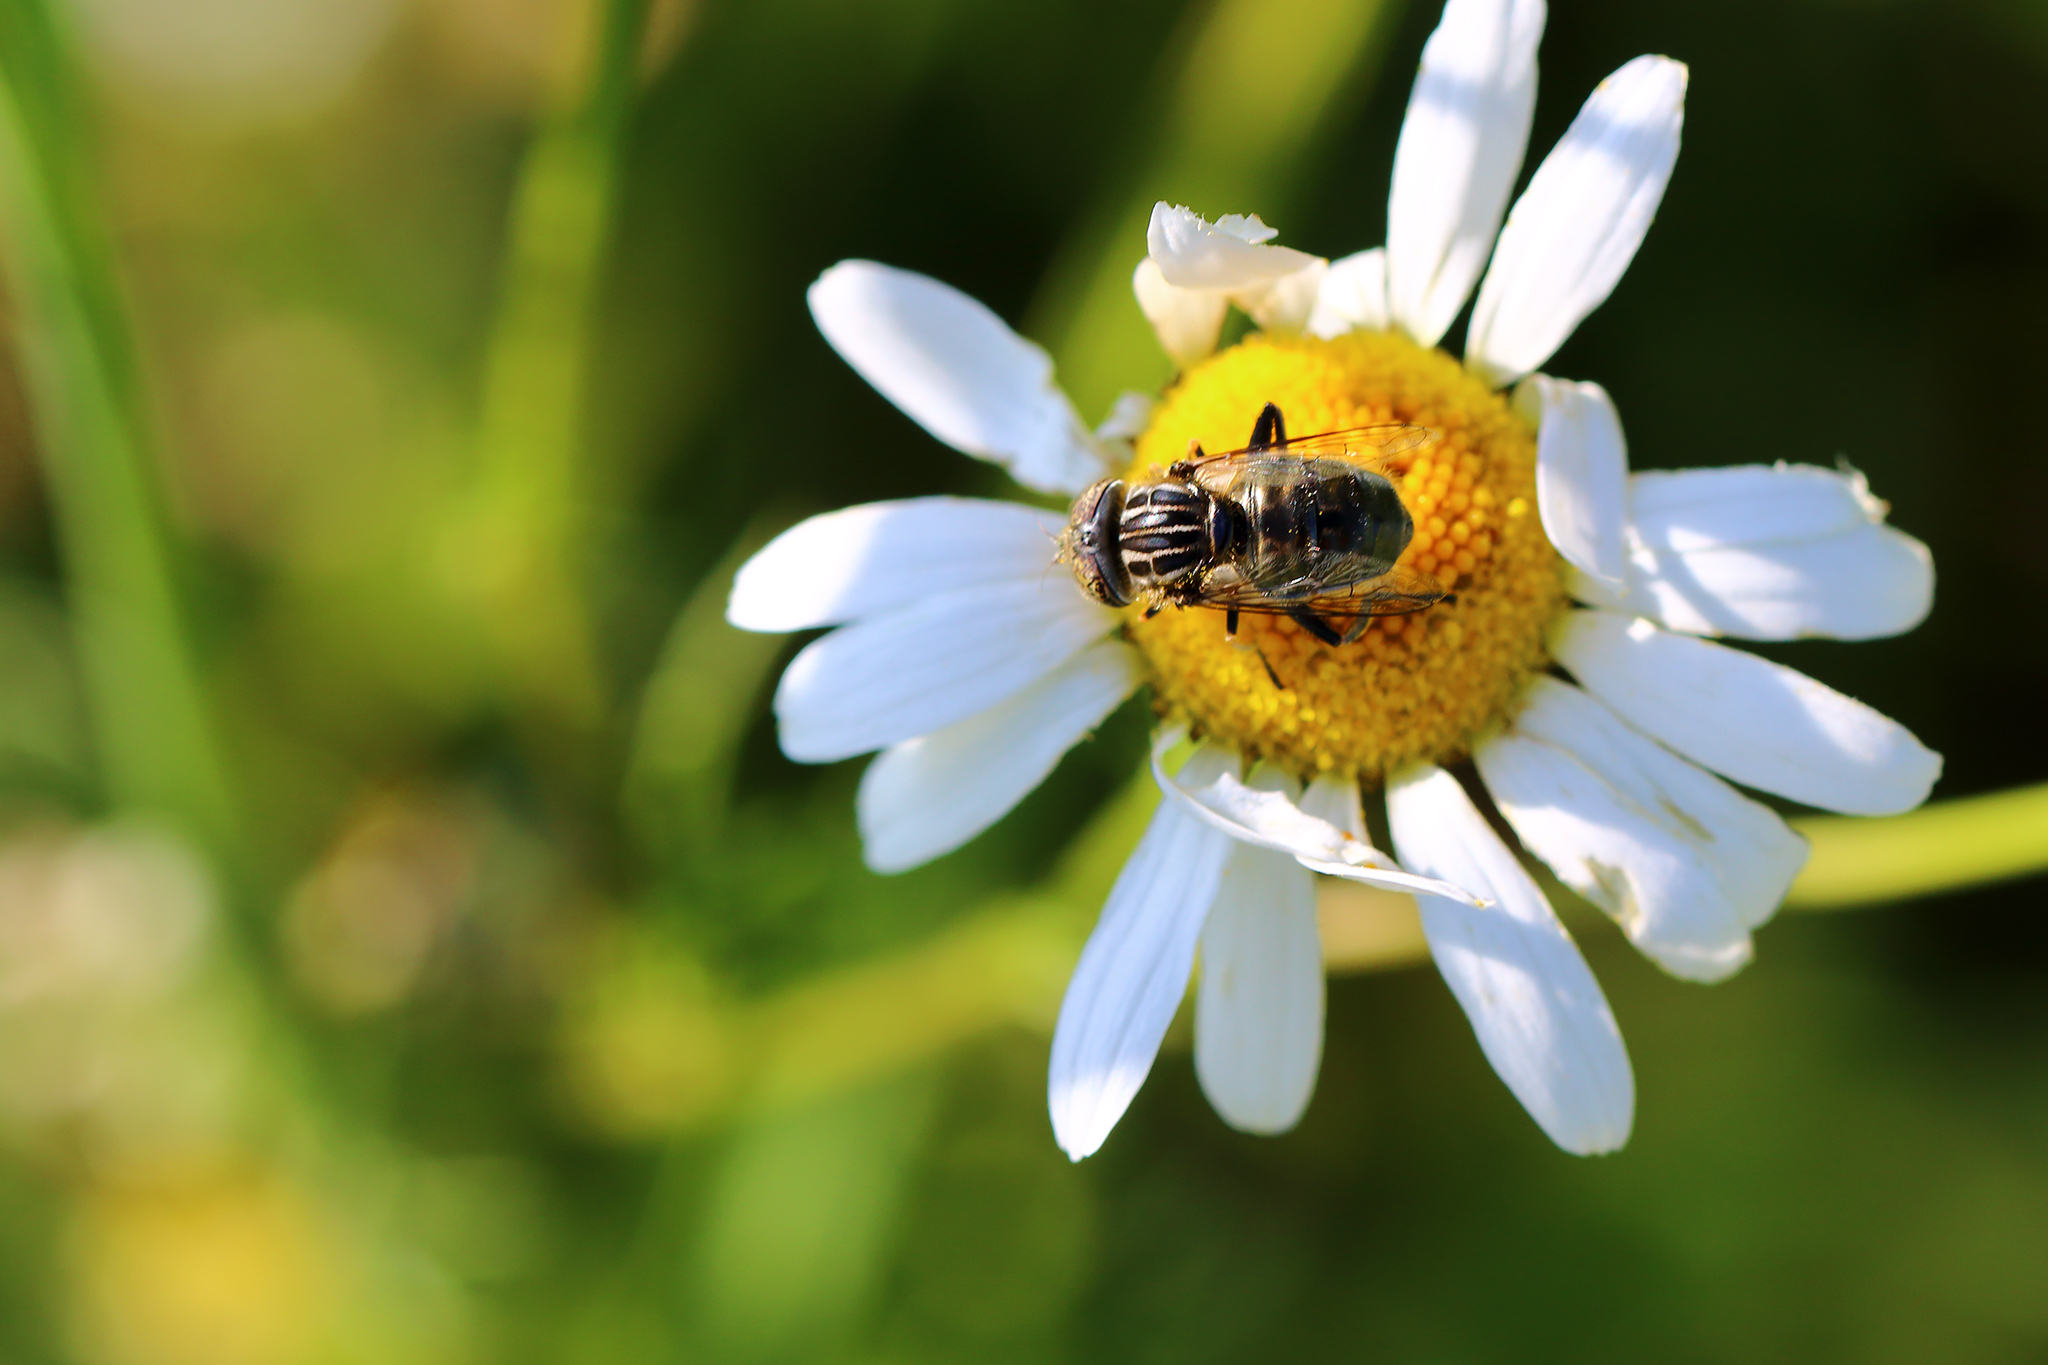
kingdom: Animalia
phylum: Arthropoda
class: Insecta
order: Diptera
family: Syrphidae
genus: Eristalinus
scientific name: Eristalinus sepulchralis
